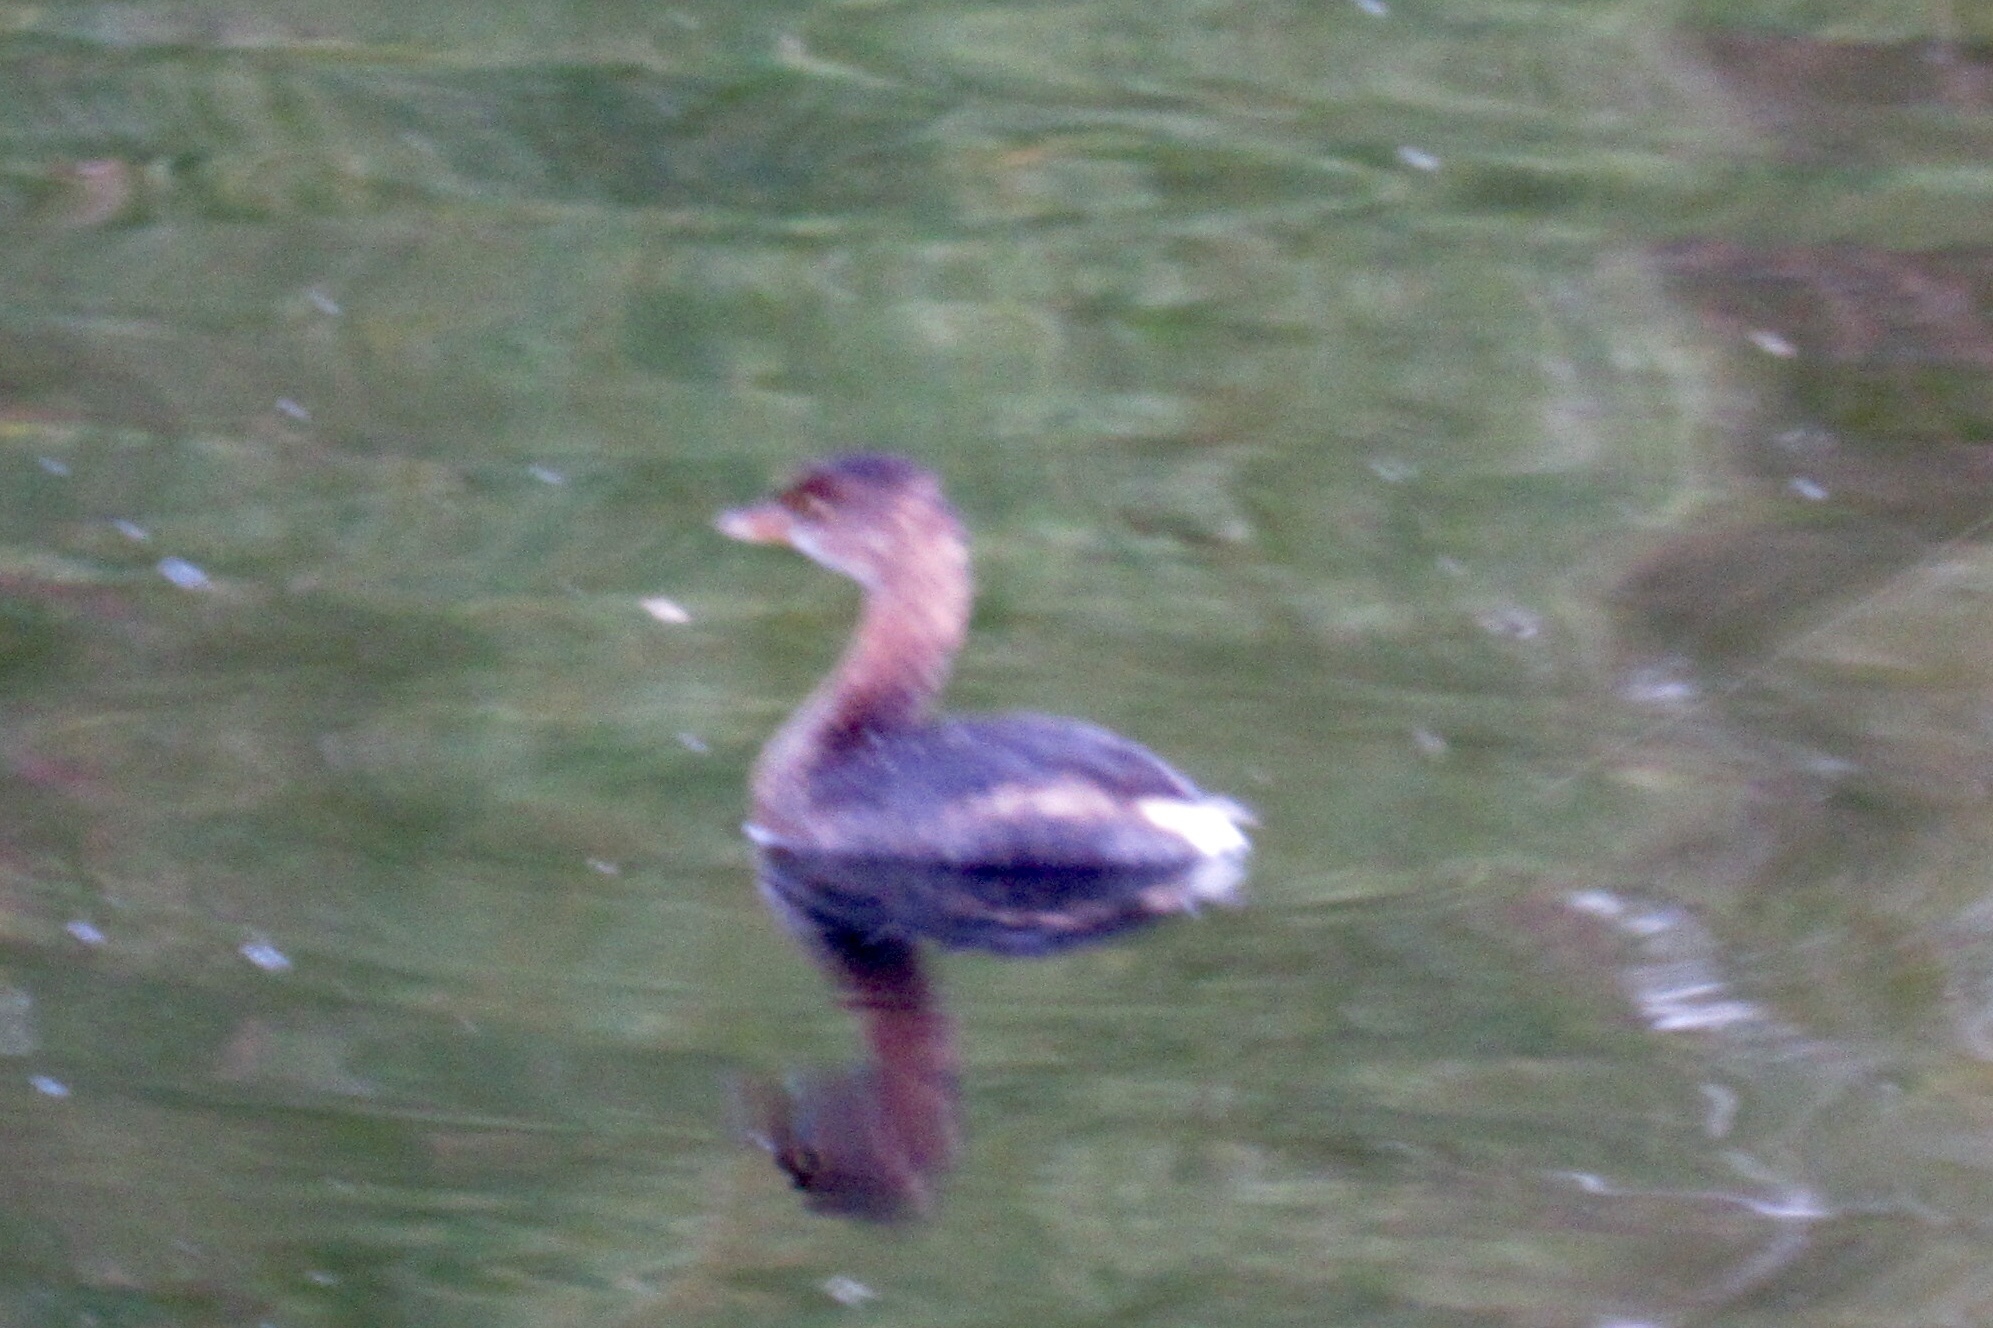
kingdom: Animalia
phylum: Chordata
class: Aves
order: Podicipediformes
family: Podicipedidae
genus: Podilymbus
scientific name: Podilymbus podiceps
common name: Pied-billed grebe
